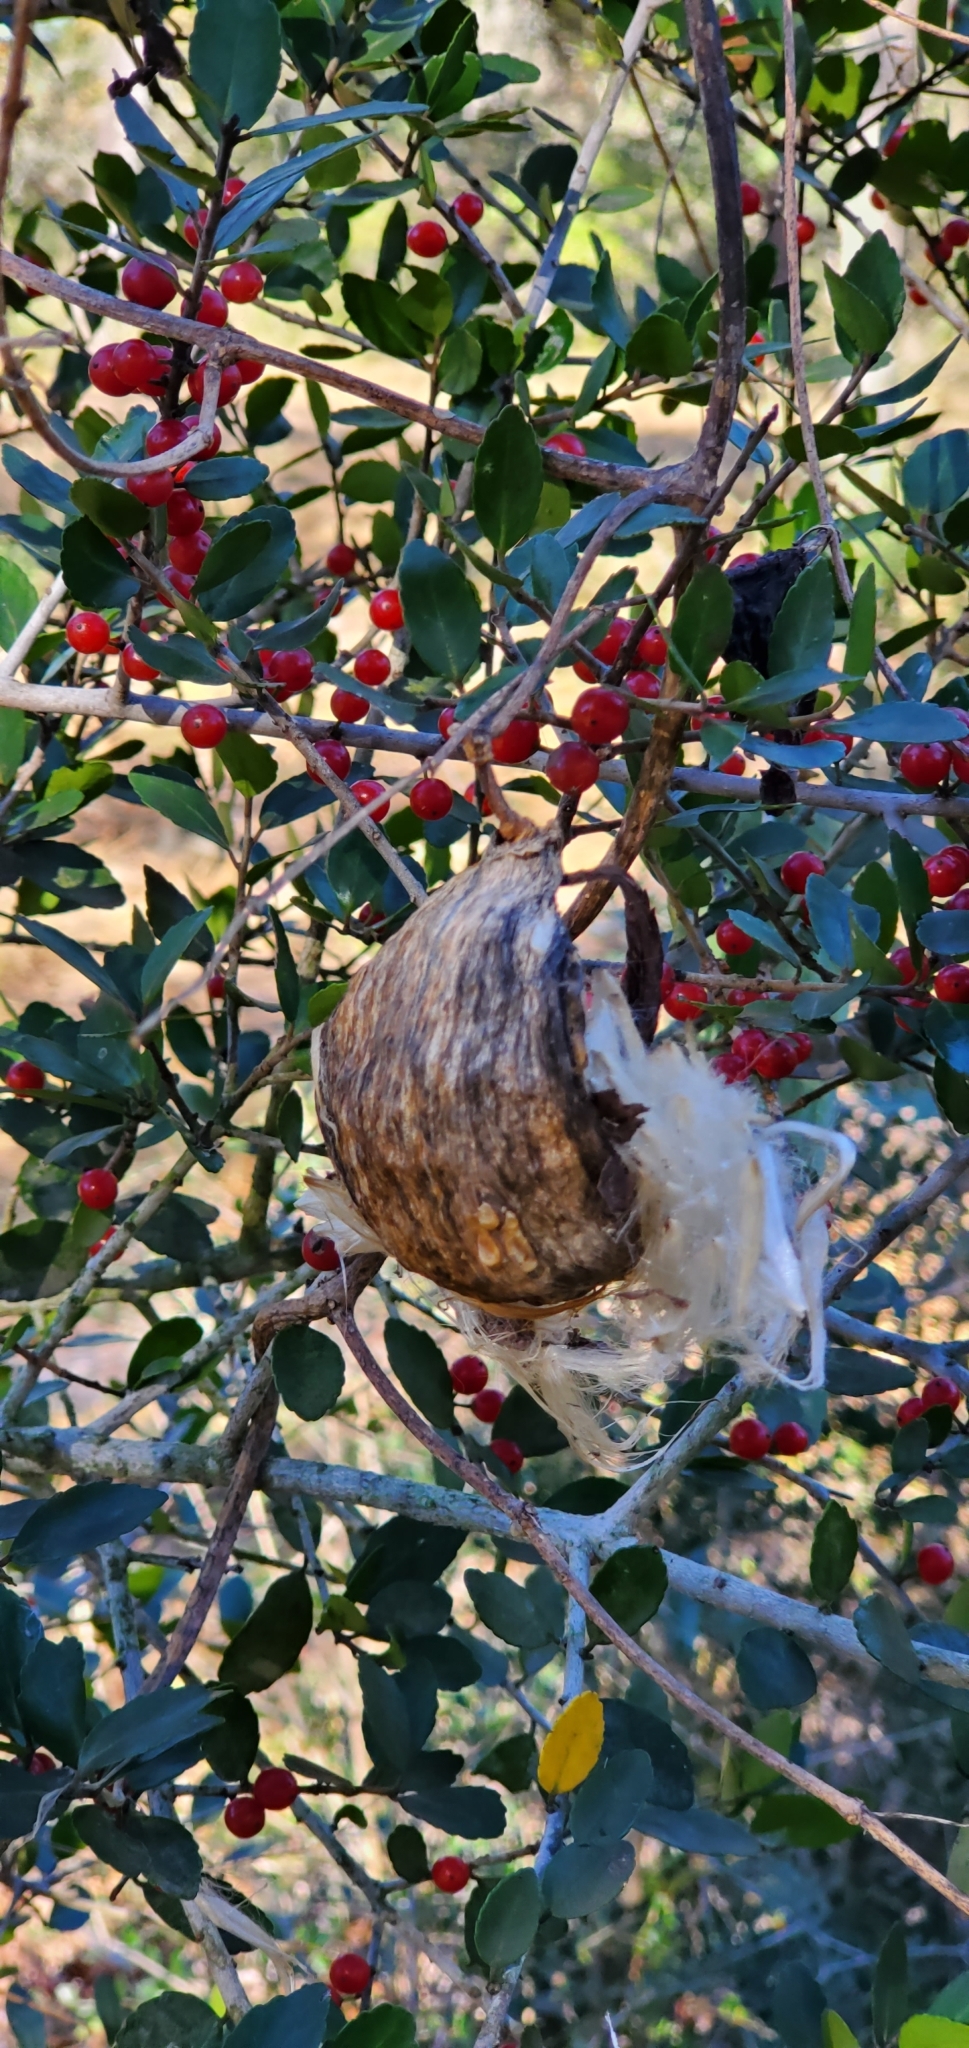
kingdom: Plantae
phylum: Tracheophyta
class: Magnoliopsida
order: Gentianales
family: Apocynaceae
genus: Cynanchum
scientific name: Cynanchum racemosum
